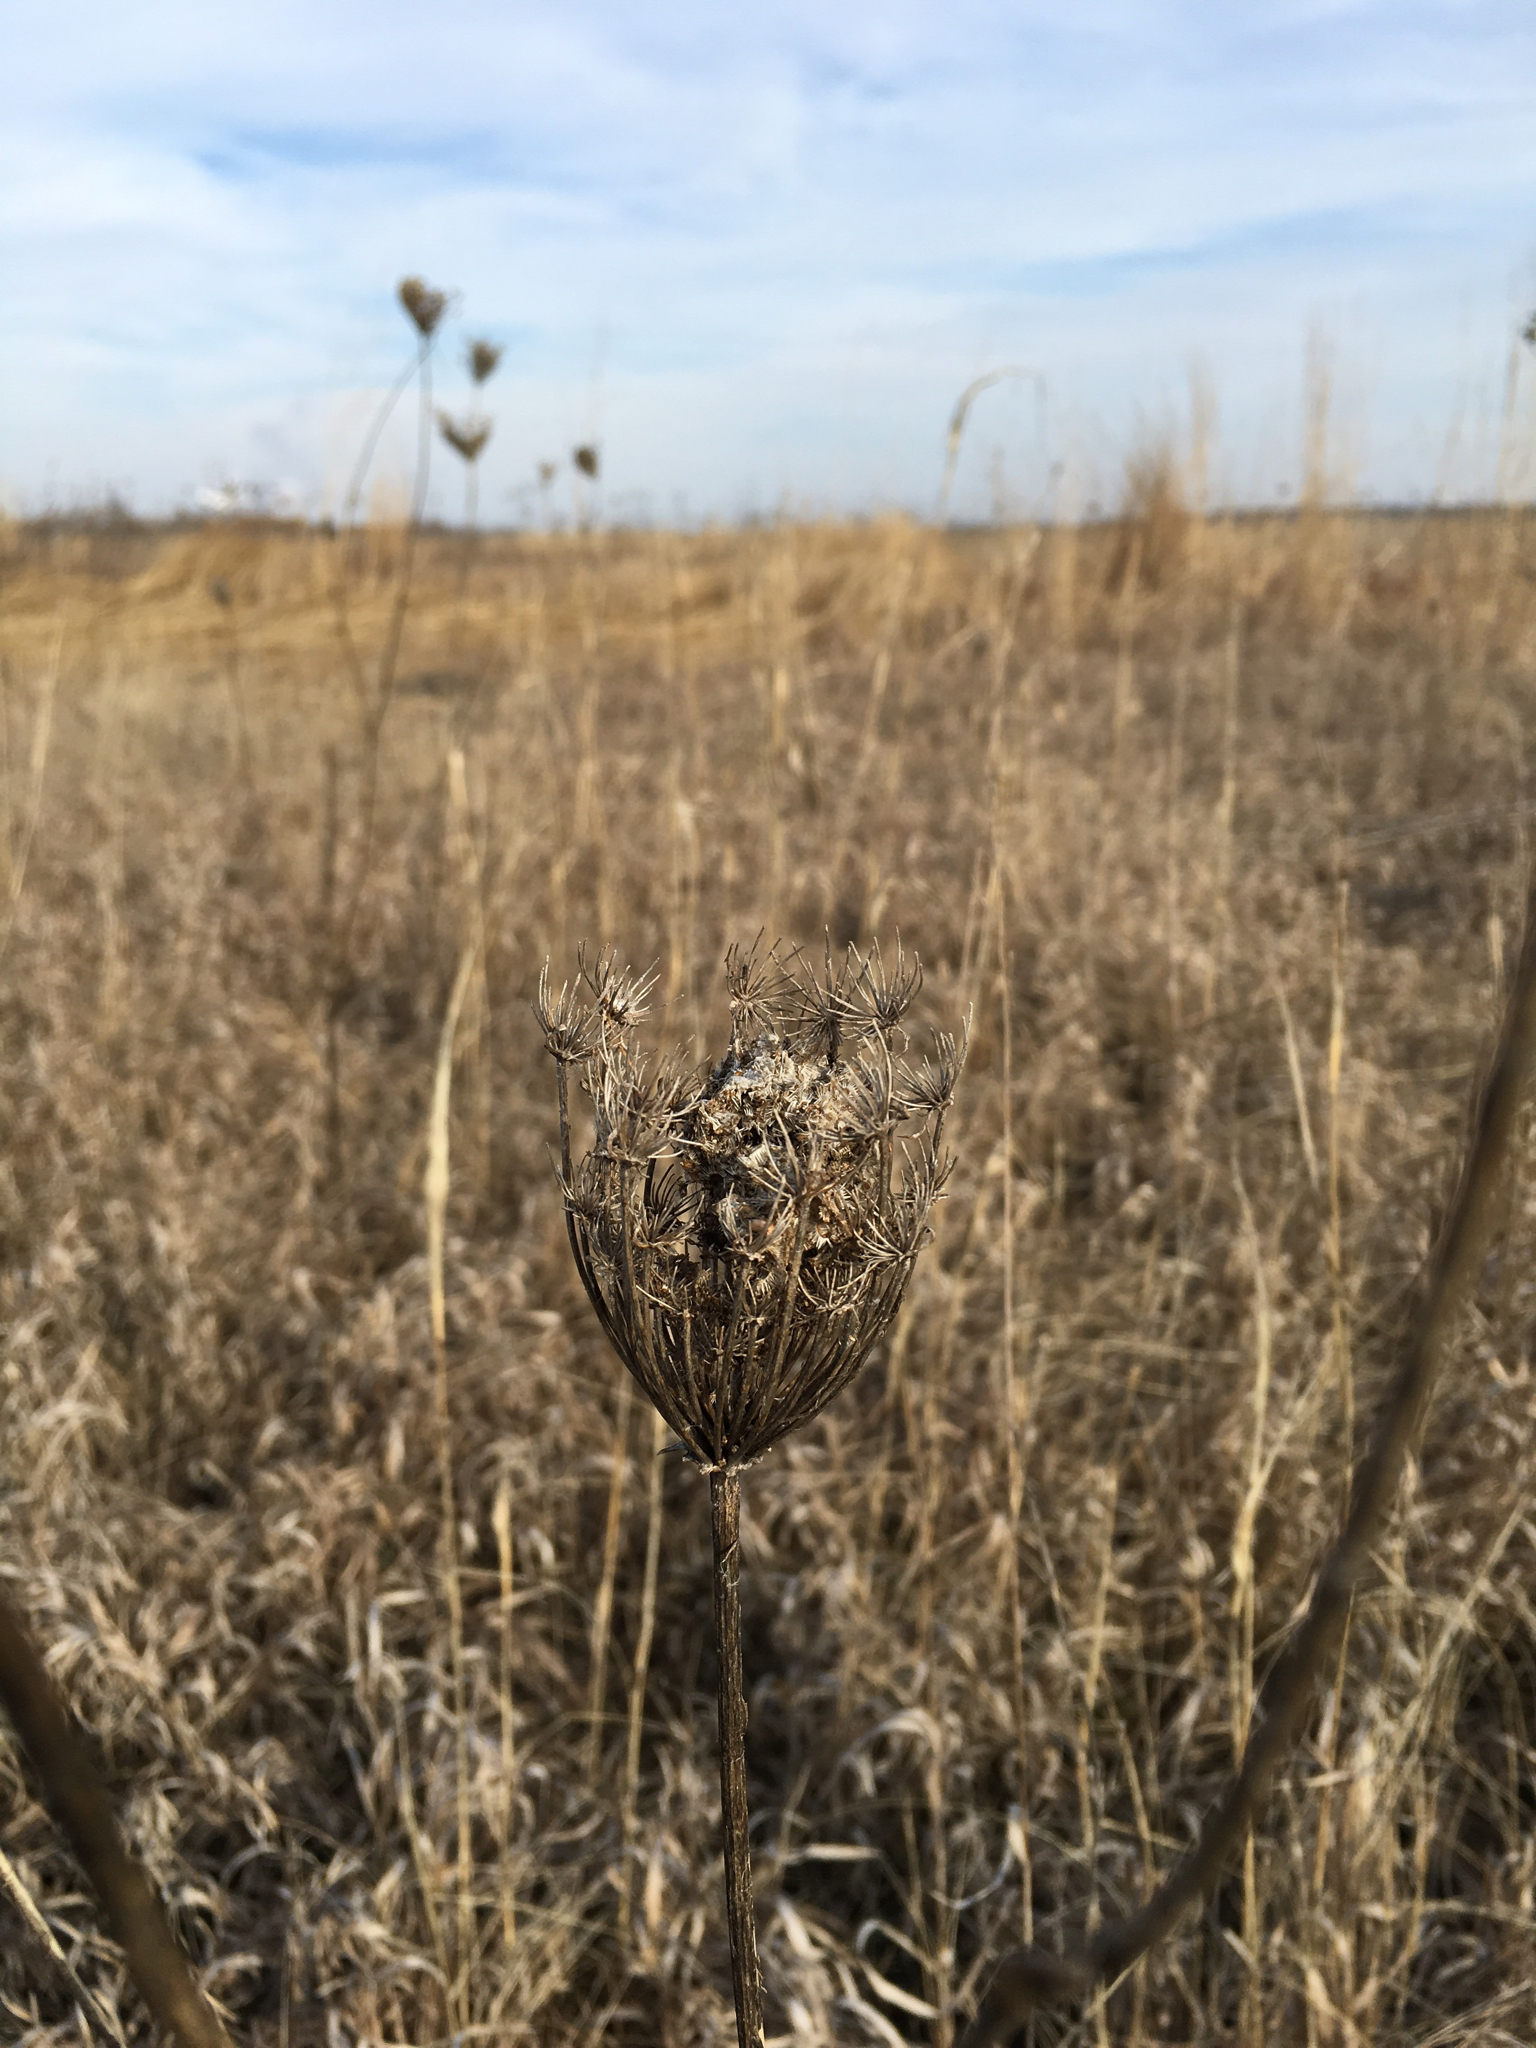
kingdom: Plantae
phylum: Tracheophyta
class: Magnoliopsida
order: Apiales
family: Apiaceae
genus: Daucus
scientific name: Daucus carota
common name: Wild carrot
